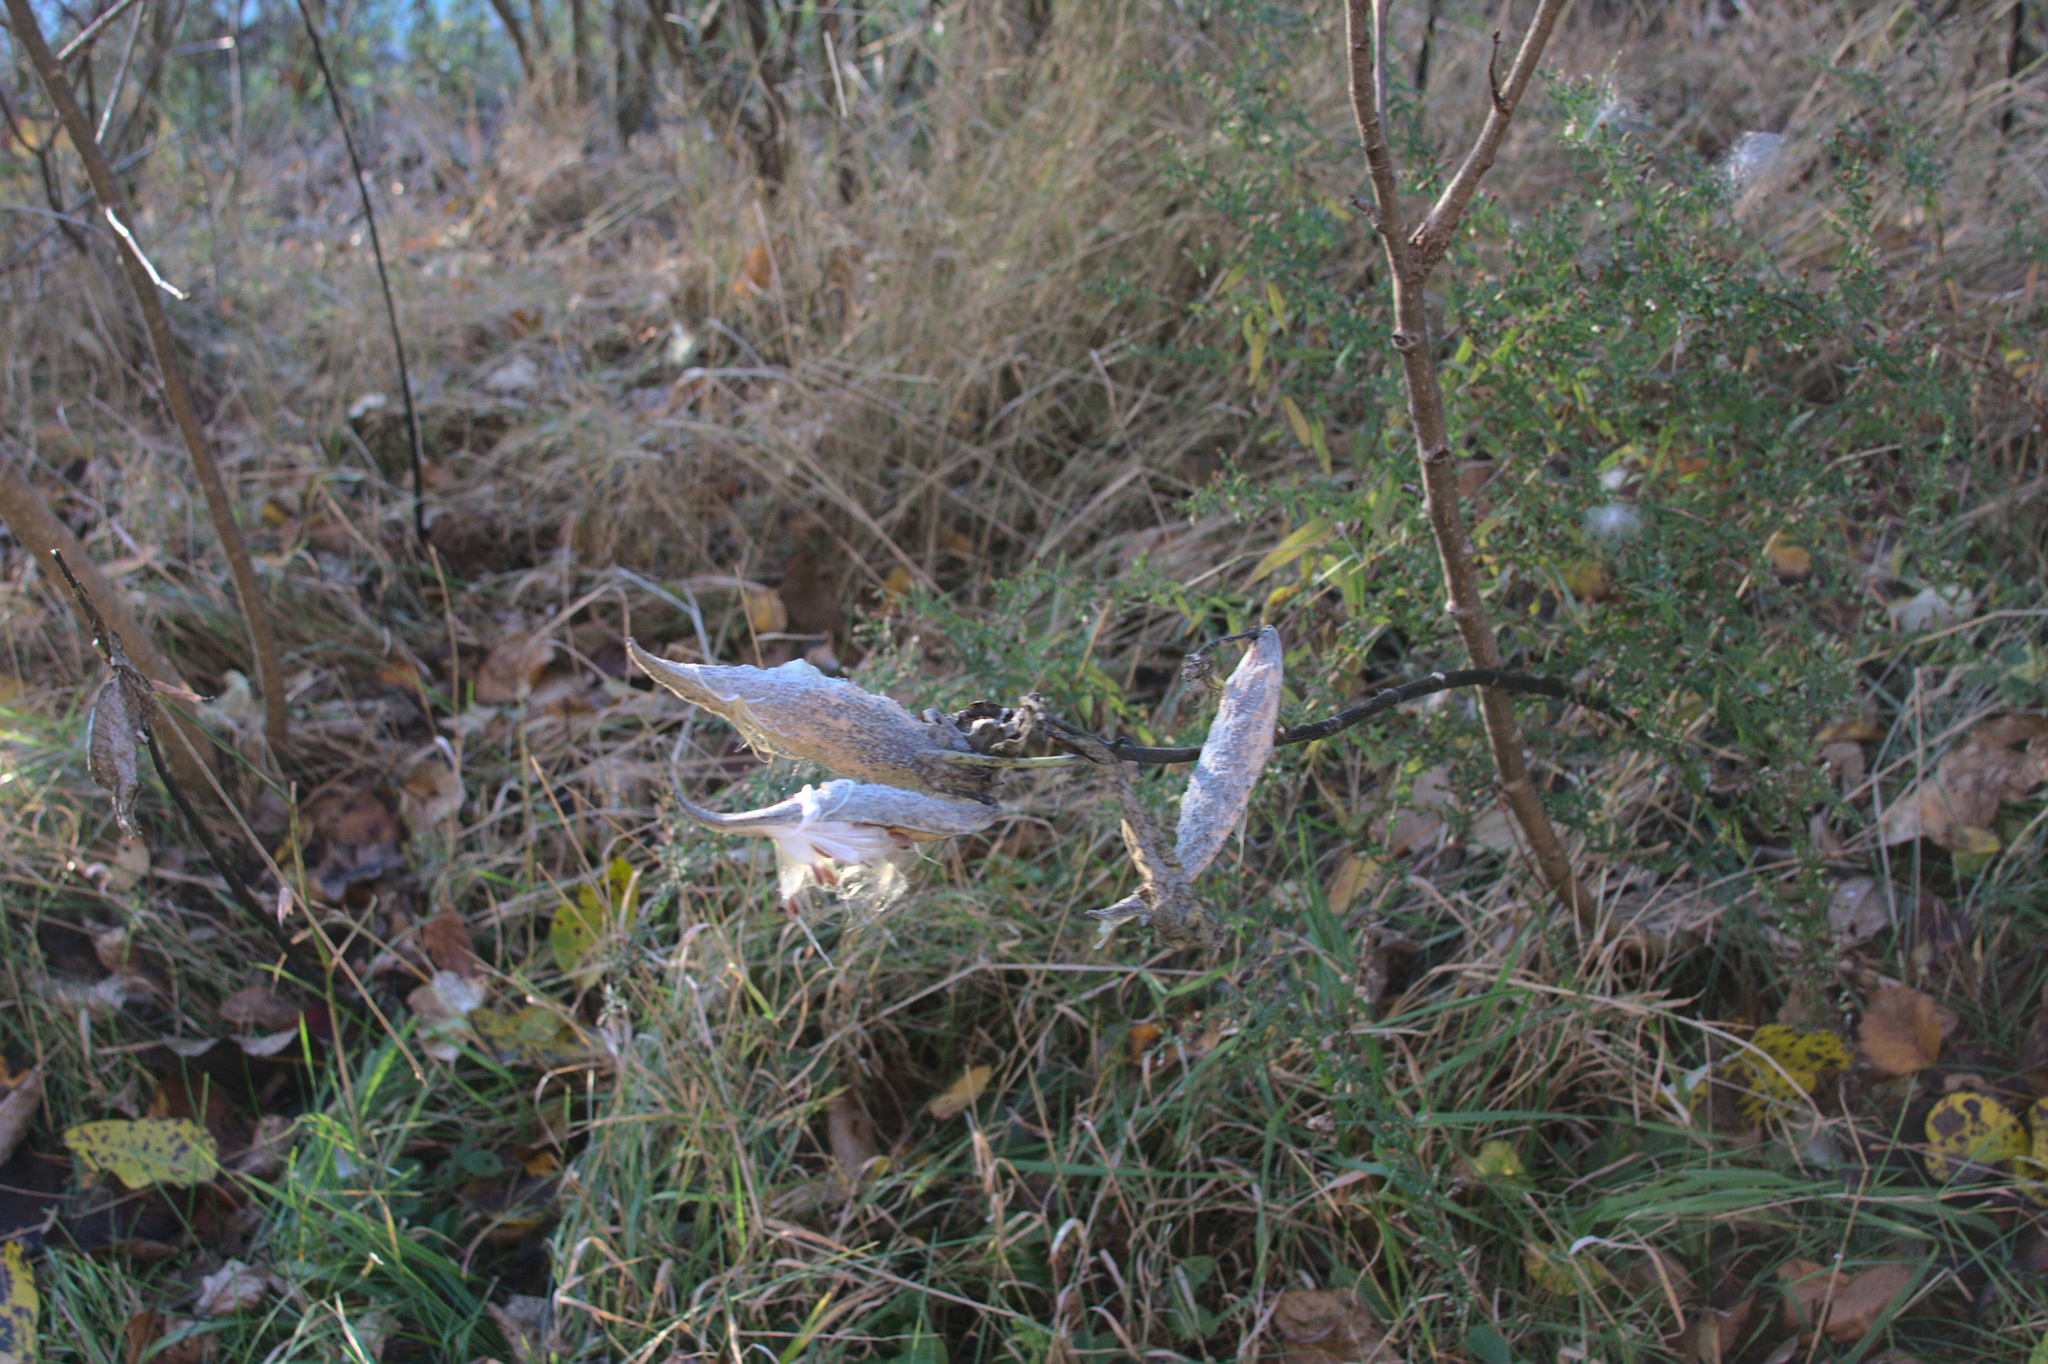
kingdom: Plantae
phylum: Tracheophyta
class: Magnoliopsida
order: Gentianales
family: Apocynaceae
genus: Asclepias
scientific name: Asclepias syriaca
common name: Common milkweed
